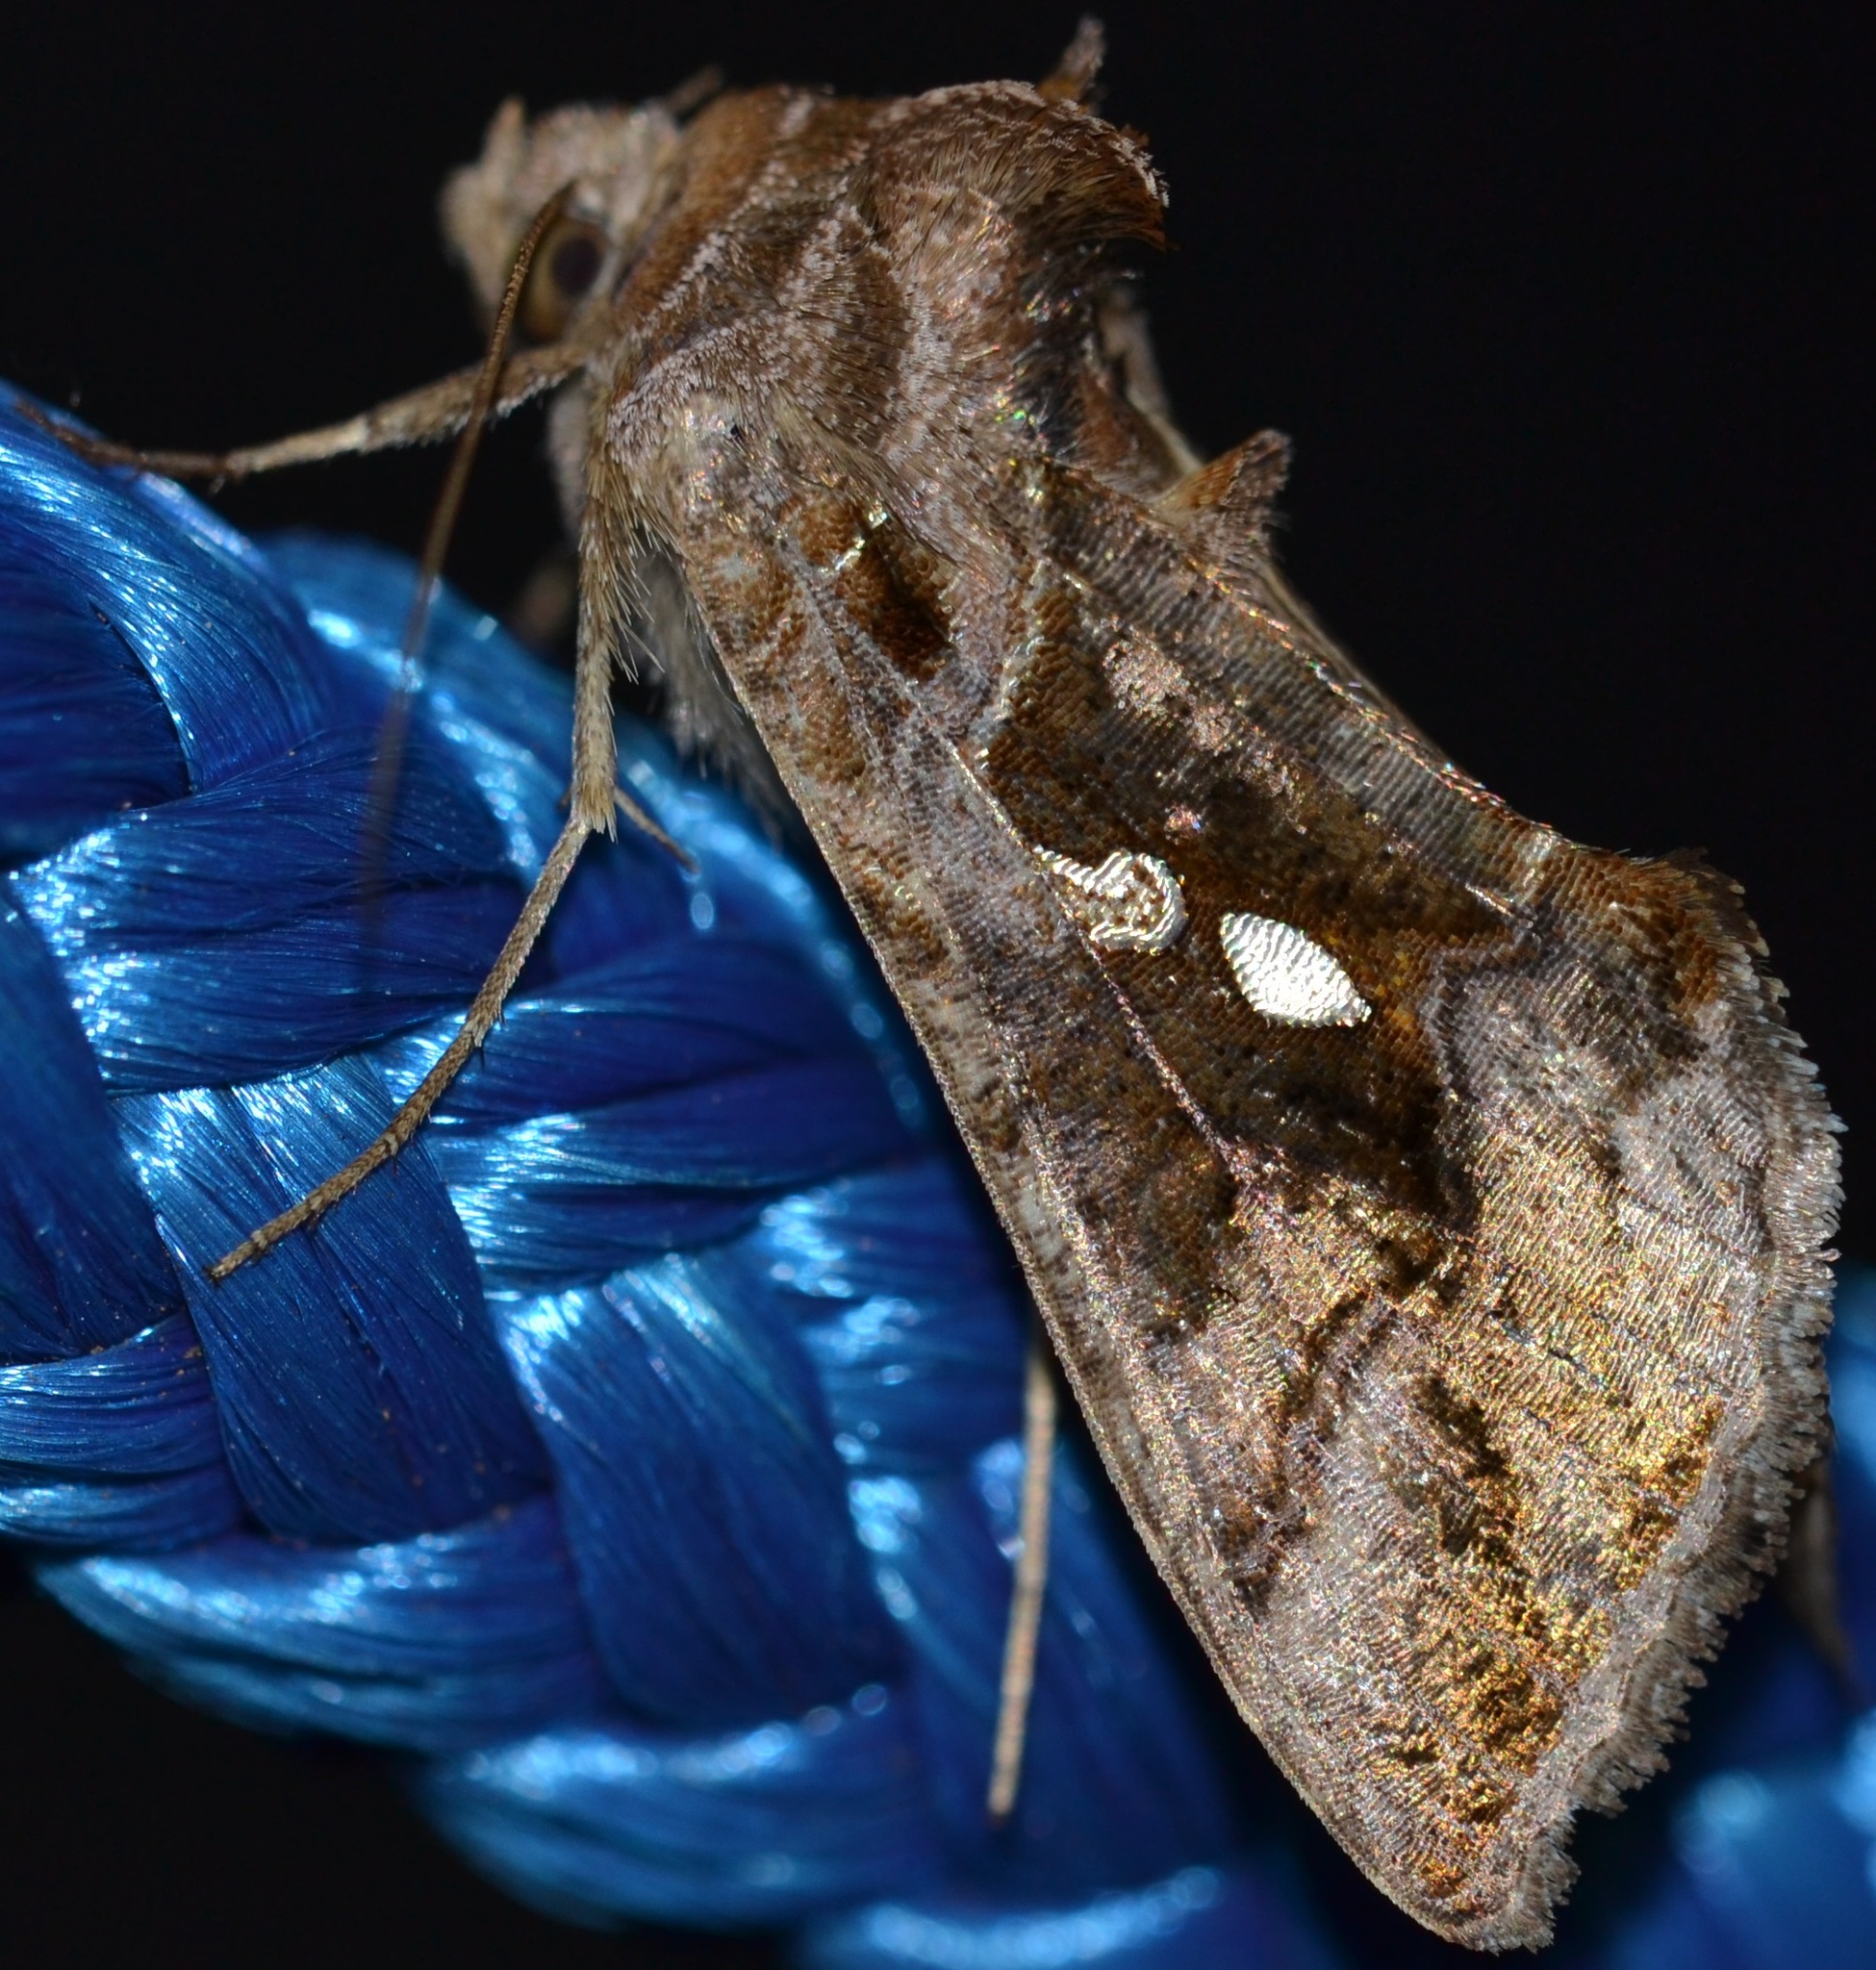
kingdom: Animalia
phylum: Arthropoda
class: Insecta
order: Lepidoptera
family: Noctuidae
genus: Chrysodeixis
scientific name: Chrysodeixis eriosoma
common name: Green garden looper
